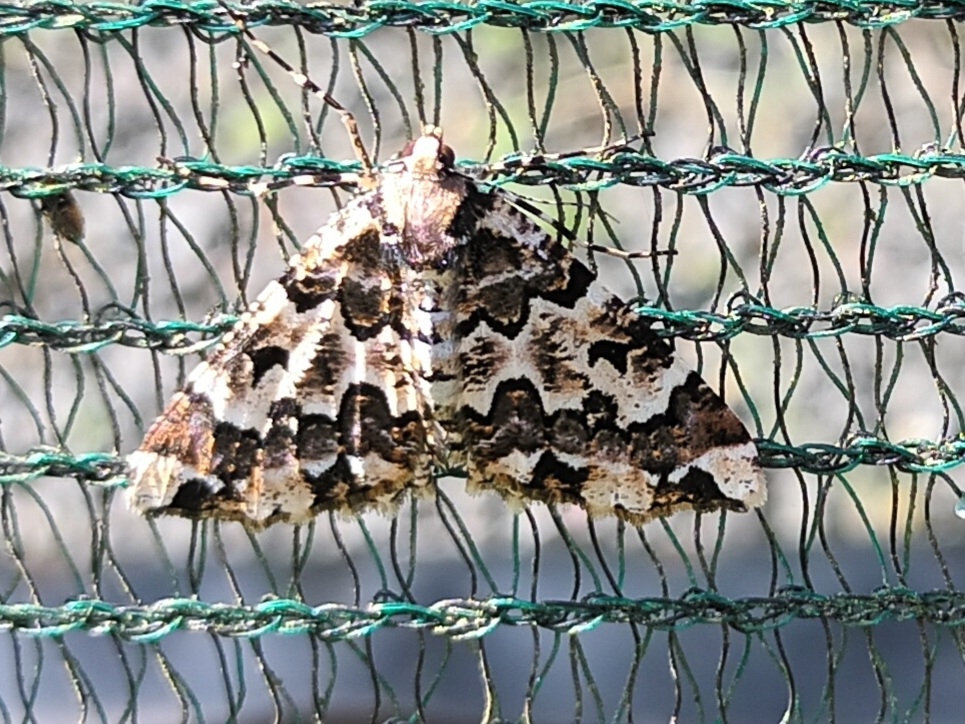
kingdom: Animalia
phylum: Arthropoda
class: Insecta
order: Lepidoptera
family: Geometridae
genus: Oedicentra
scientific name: Oedicentra albipennis
